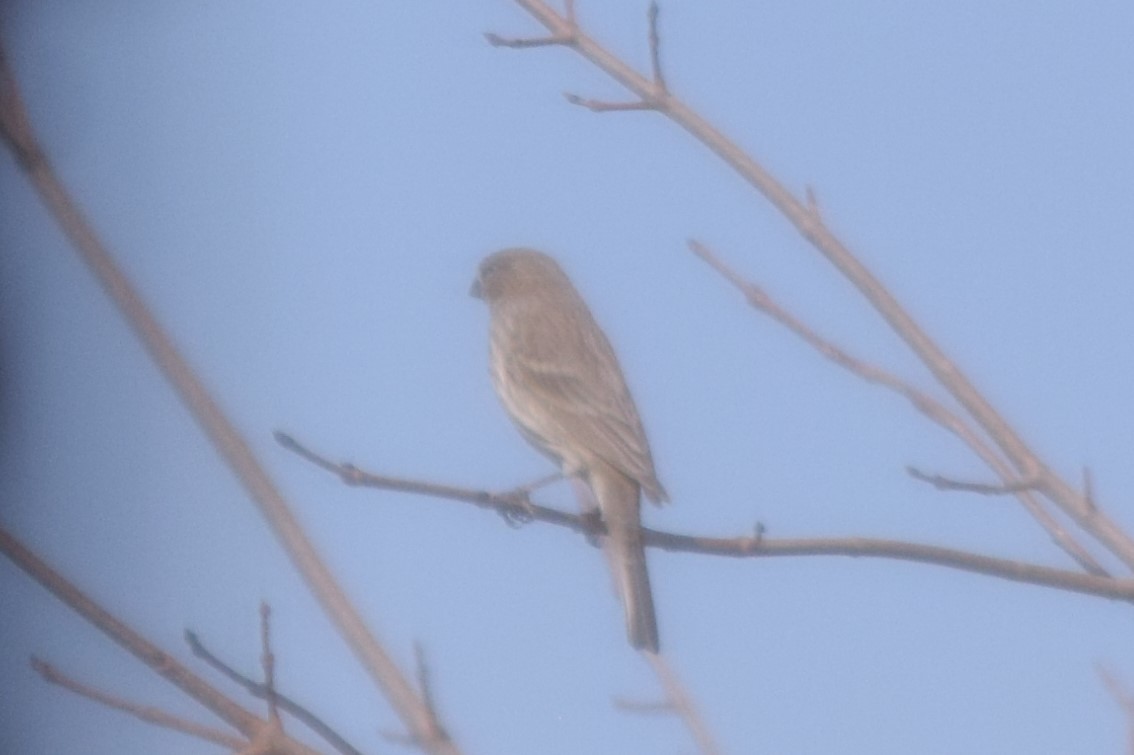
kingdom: Animalia
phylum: Chordata
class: Aves
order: Passeriformes
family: Fringillidae
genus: Haemorhous
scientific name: Haemorhous mexicanus
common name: House finch
